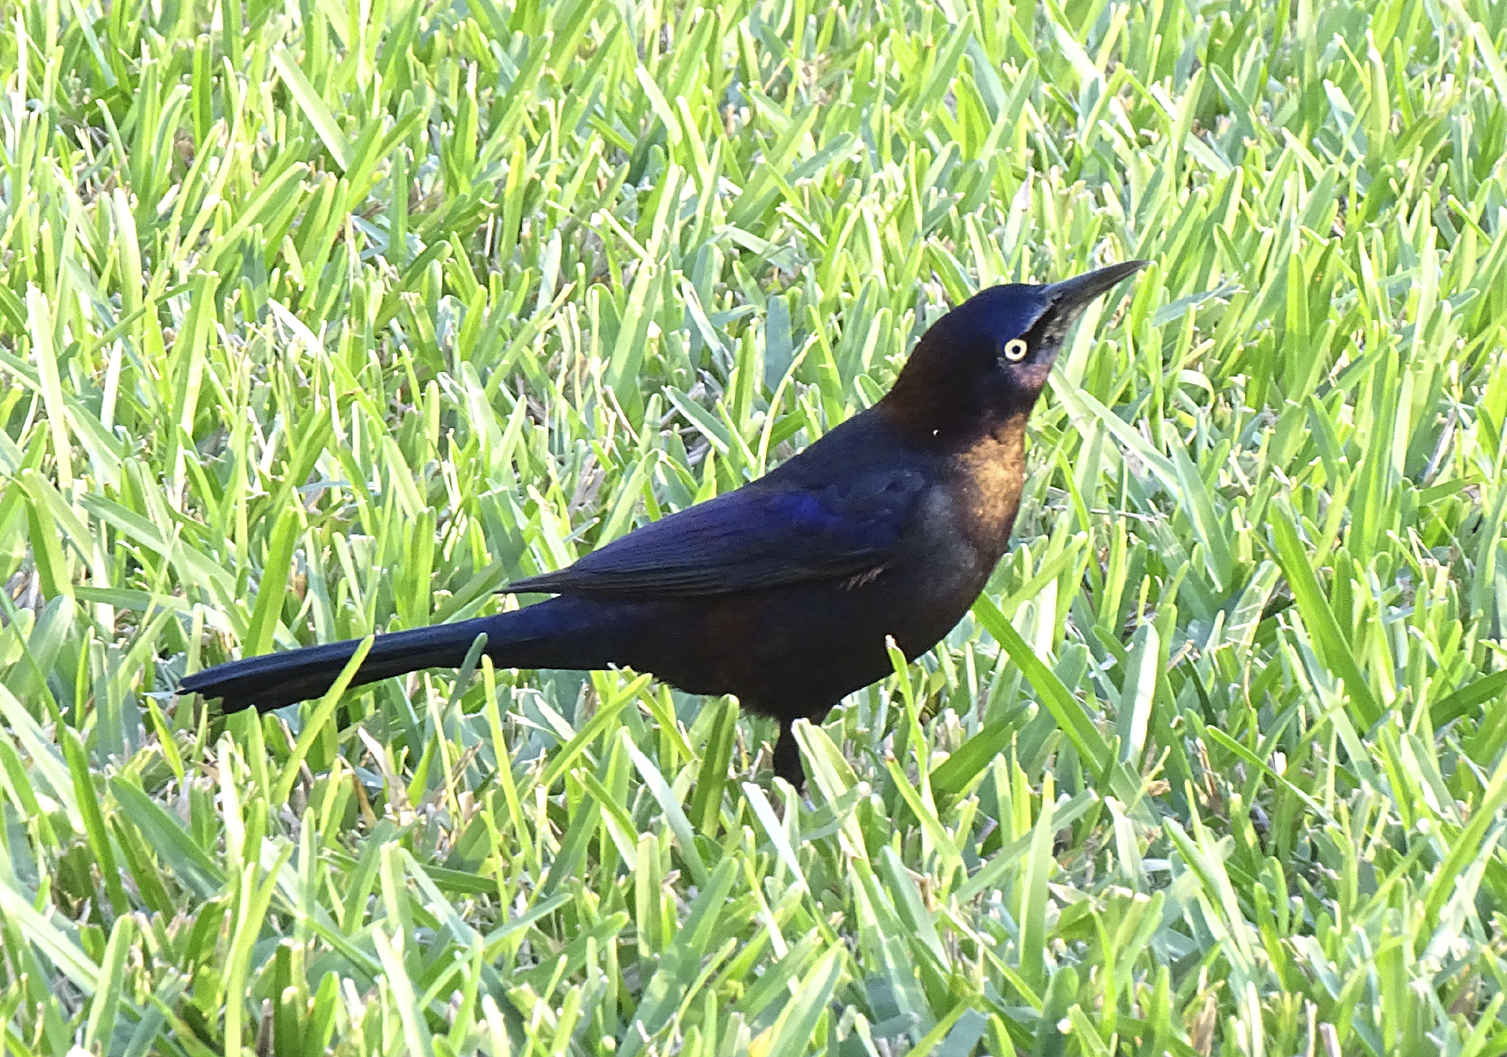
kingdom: Animalia
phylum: Chordata
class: Aves
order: Passeriformes
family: Icteridae
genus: Quiscalus
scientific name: Quiscalus quiscula
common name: Common grackle
